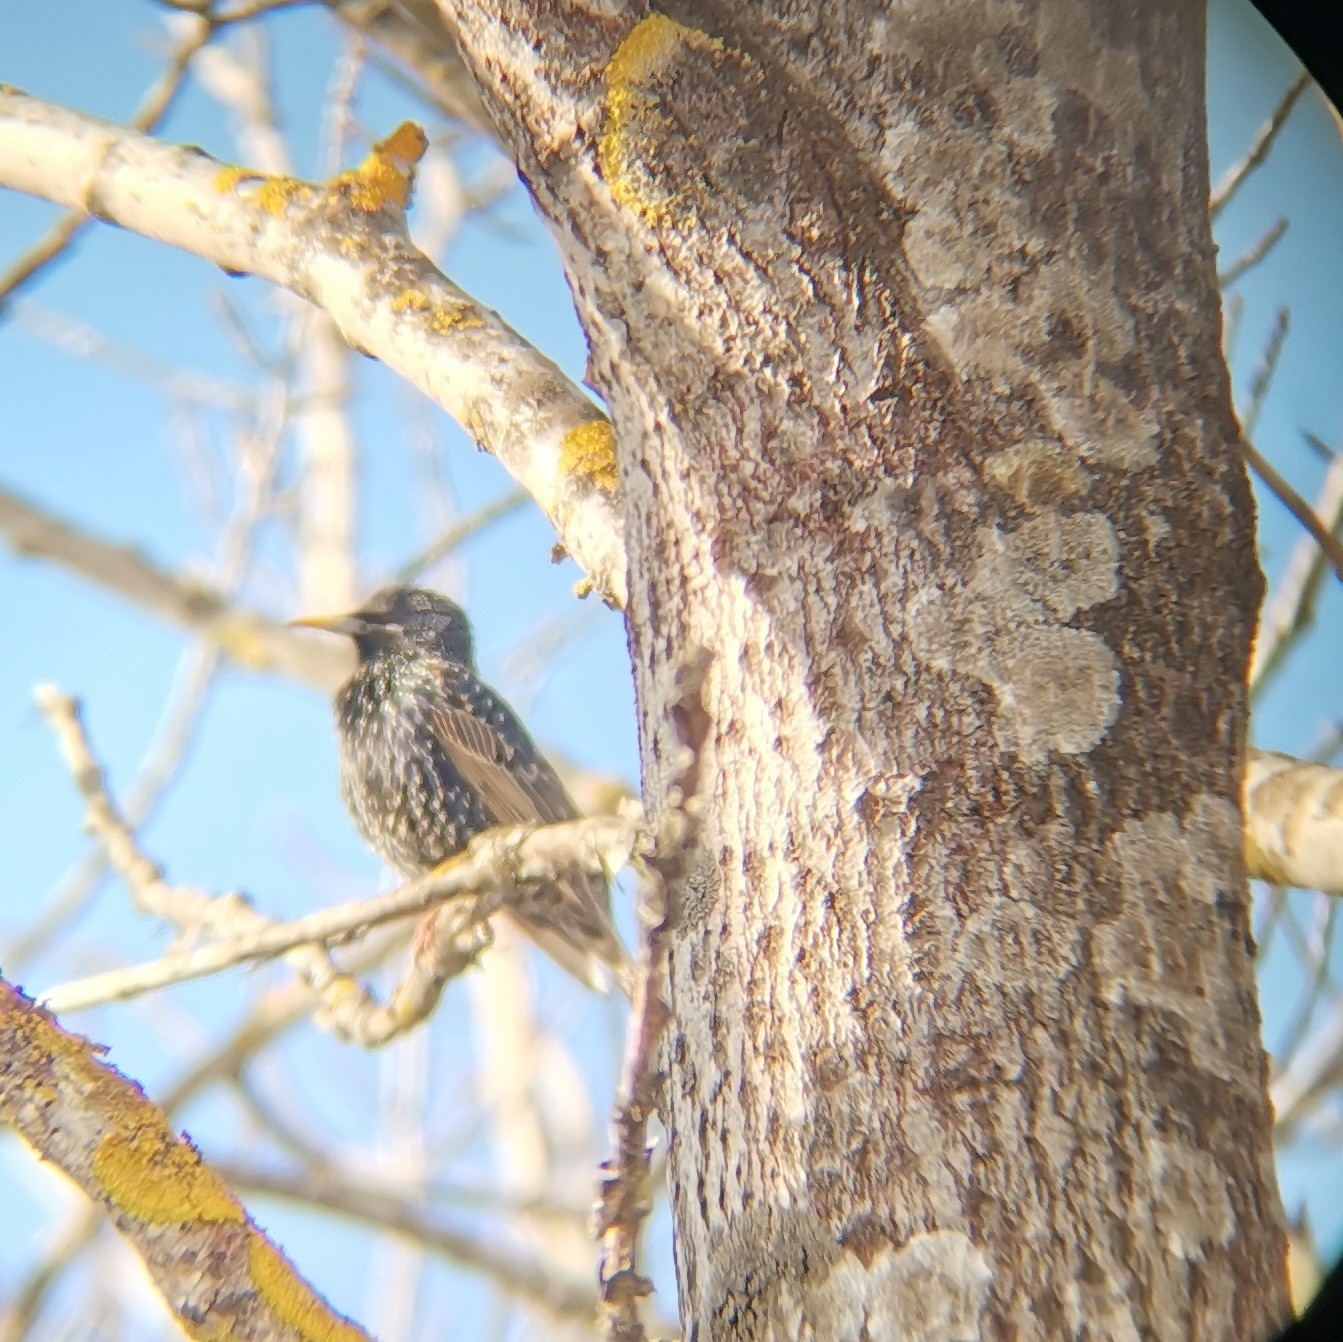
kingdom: Animalia
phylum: Chordata
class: Aves
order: Passeriformes
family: Sturnidae
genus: Sturnus
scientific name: Sturnus vulgaris
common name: Common starling
